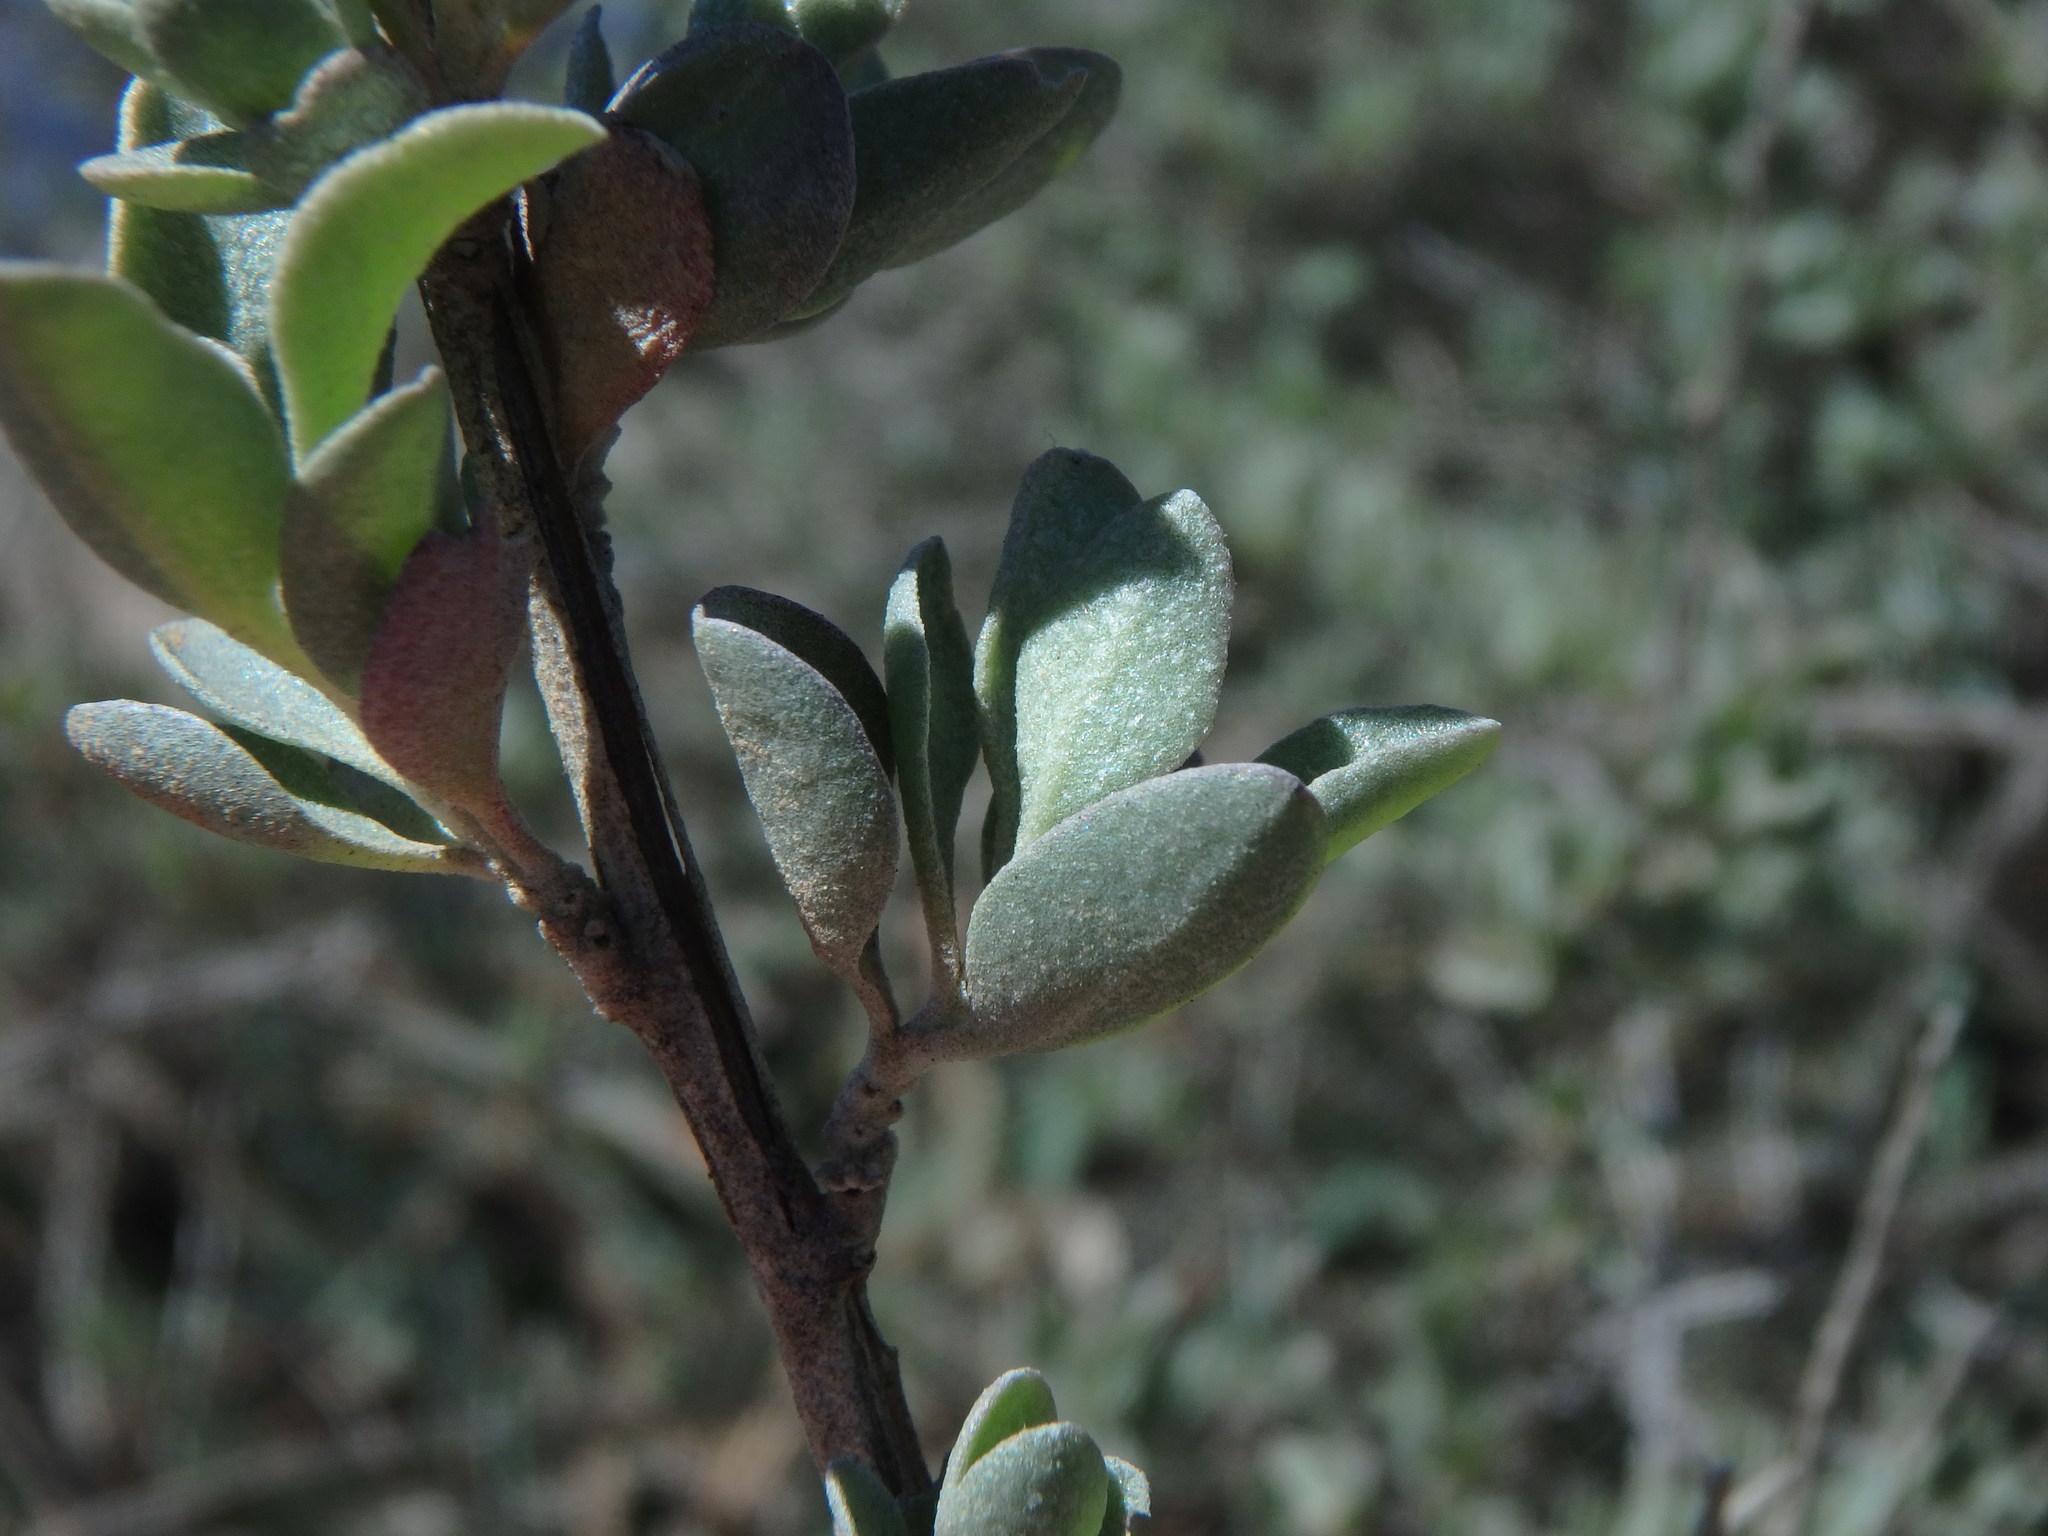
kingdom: Plantae
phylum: Tracheophyta
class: Magnoliopsida
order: Caryophyllales
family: Amaranthaceae
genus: Atriplex
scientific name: Atriplex halimus
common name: Shrubby orache
